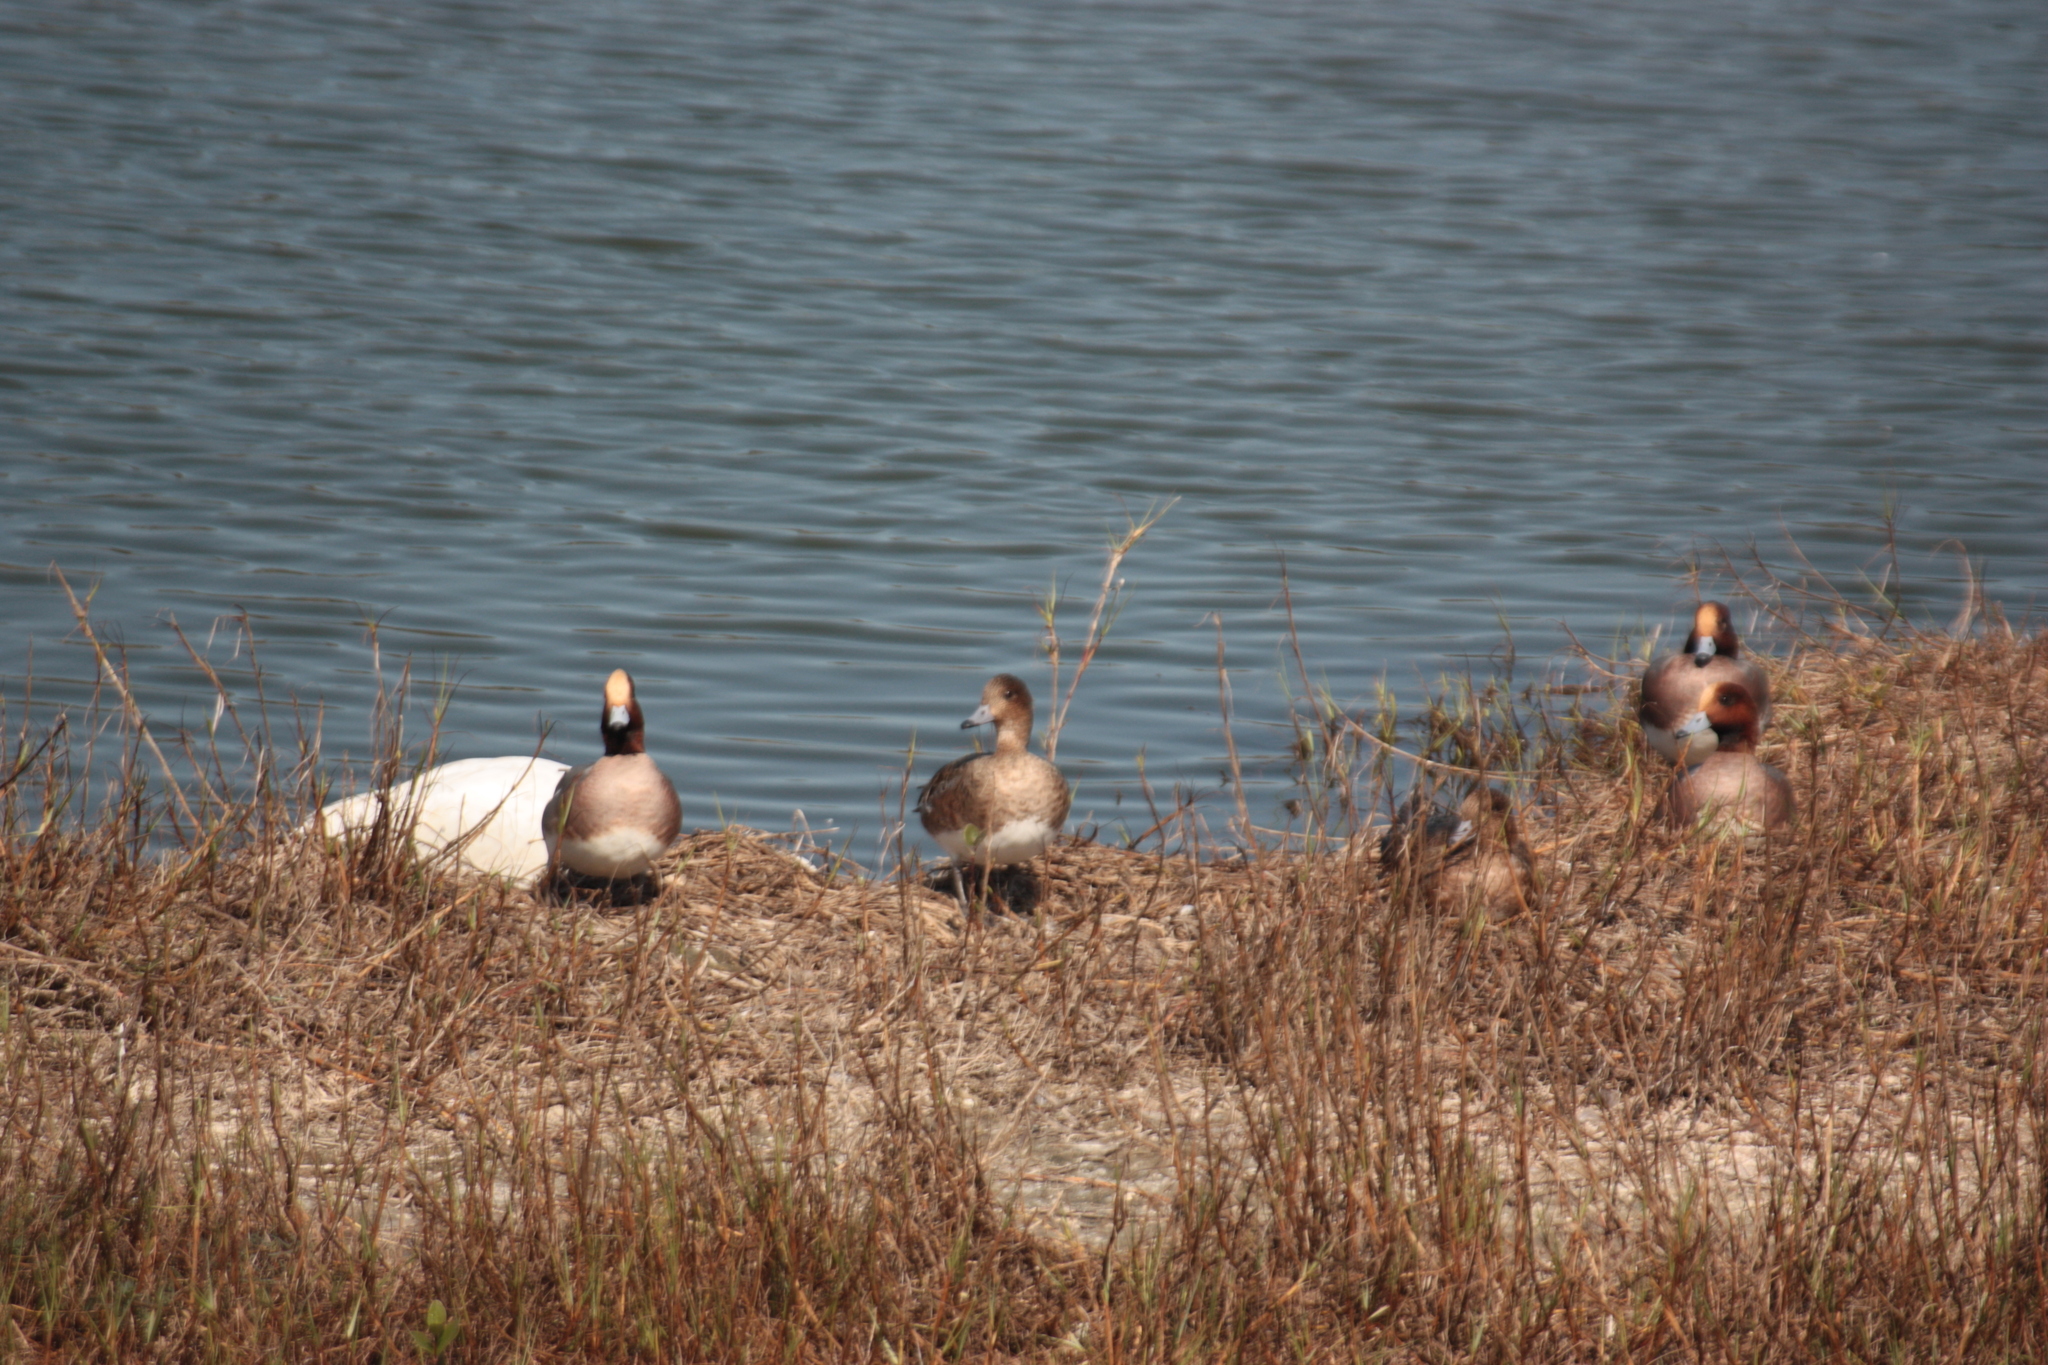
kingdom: Animalia
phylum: Chordata
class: Aves
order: Anseriformes
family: Anatidae
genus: Mareca
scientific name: Mareca penelope
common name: Eurasian wigeon
